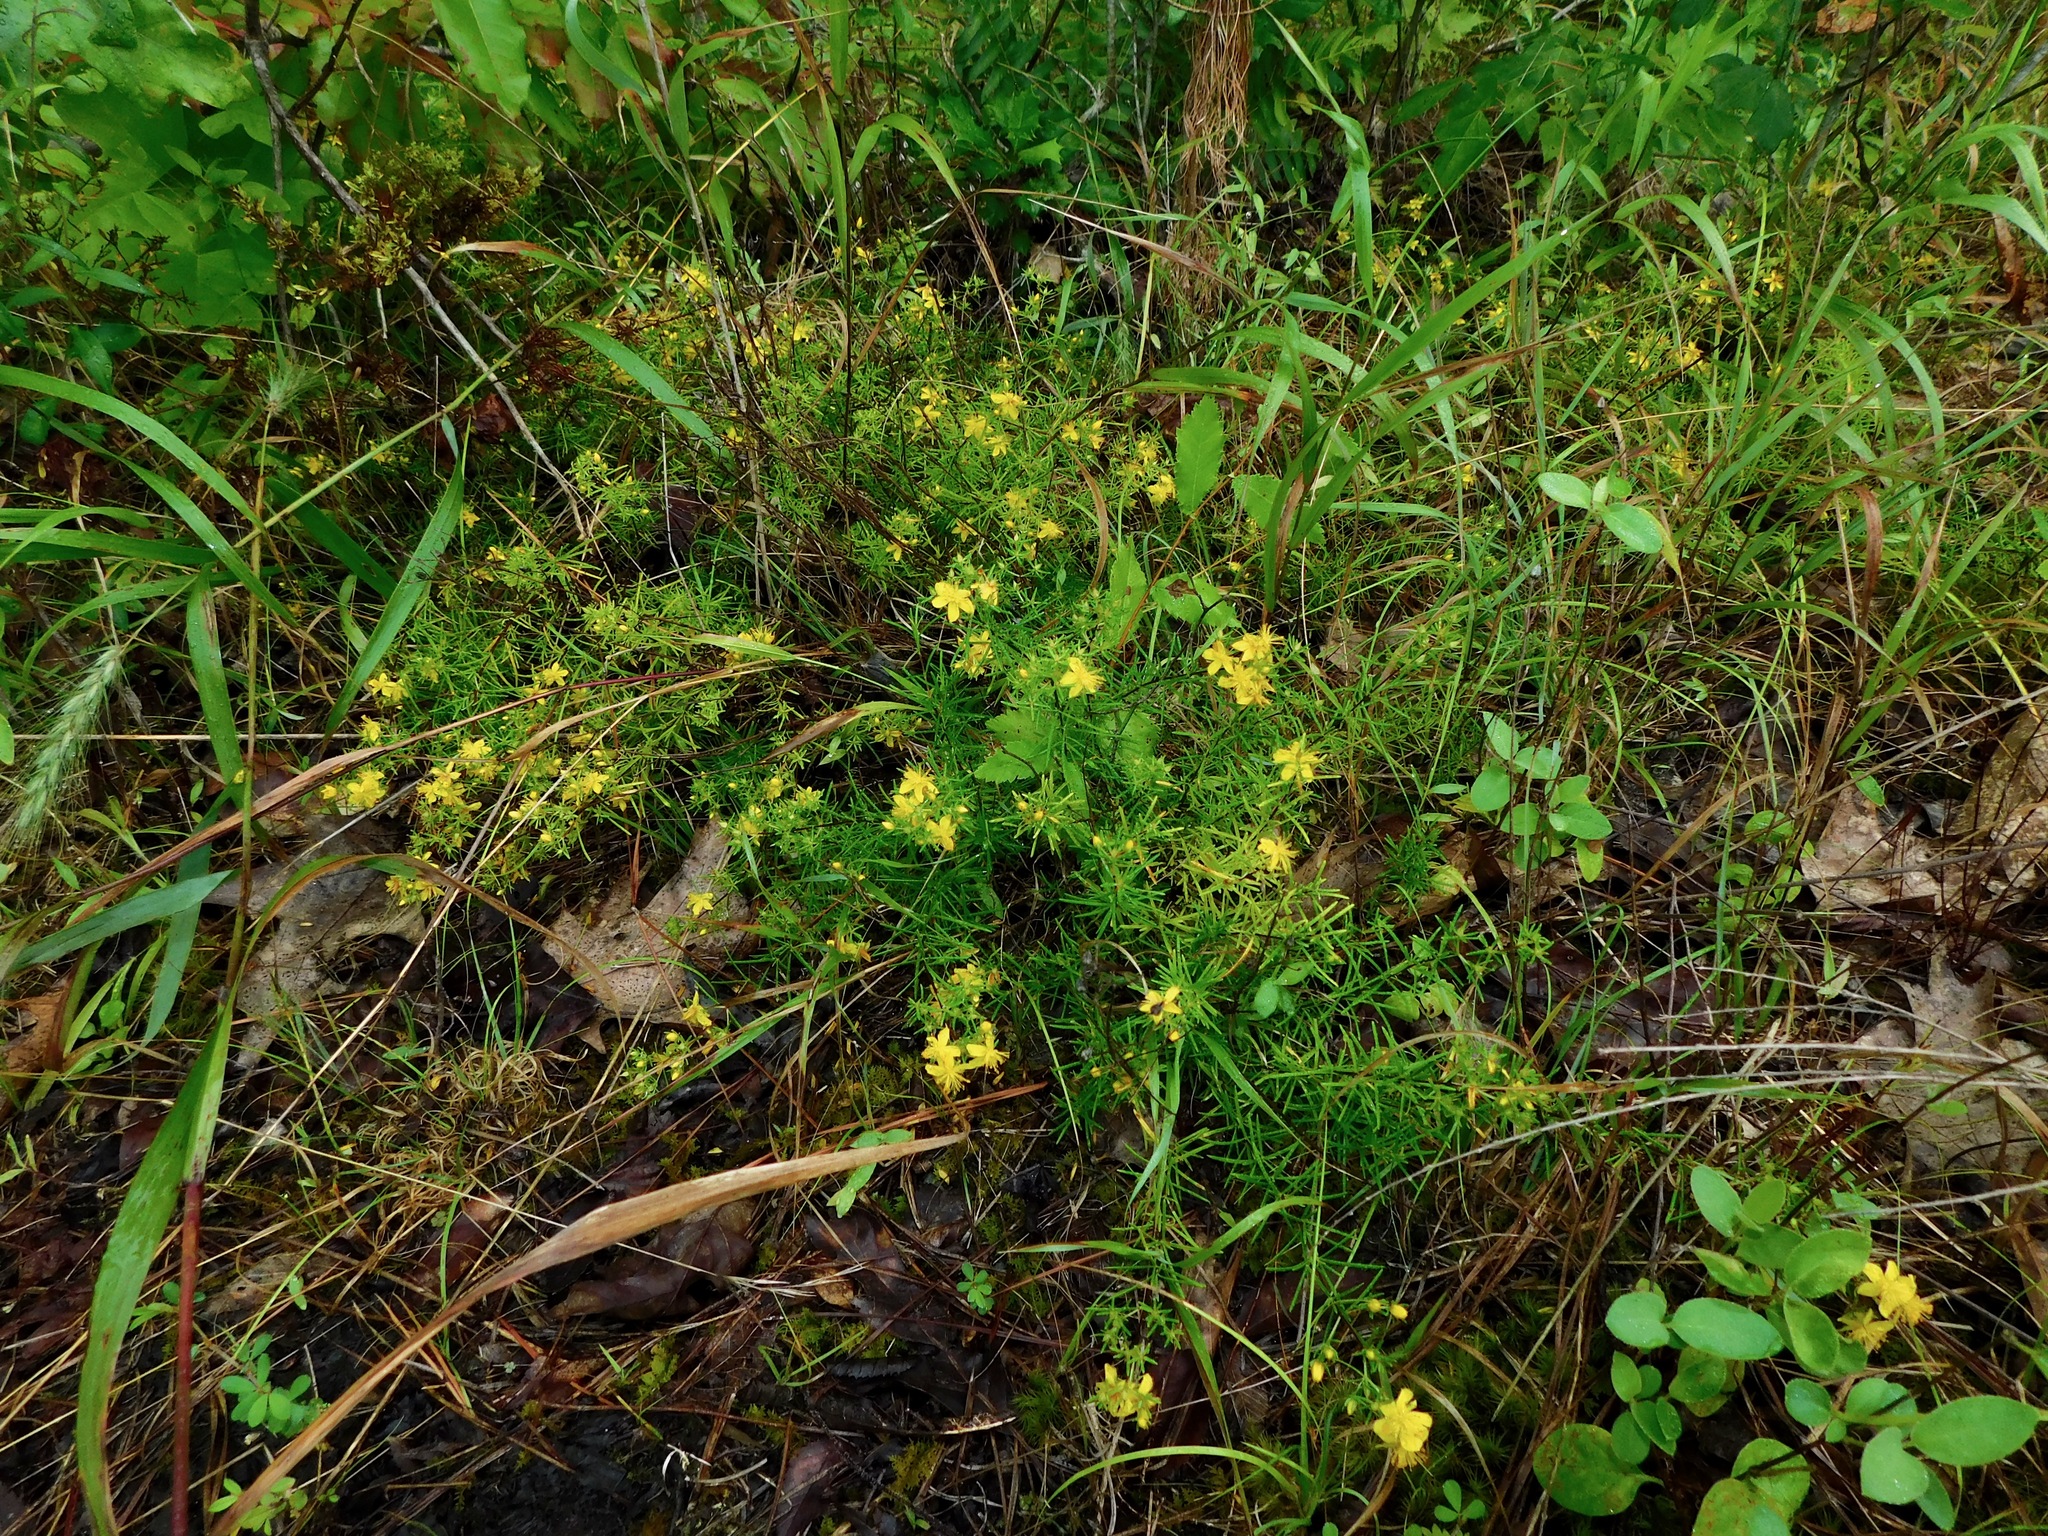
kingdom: Plantae
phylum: Tracheophyta
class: Magnoliopsida
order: Malpighiales
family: Hypericaceae
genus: Hypericum
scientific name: Hypericum lloydii
